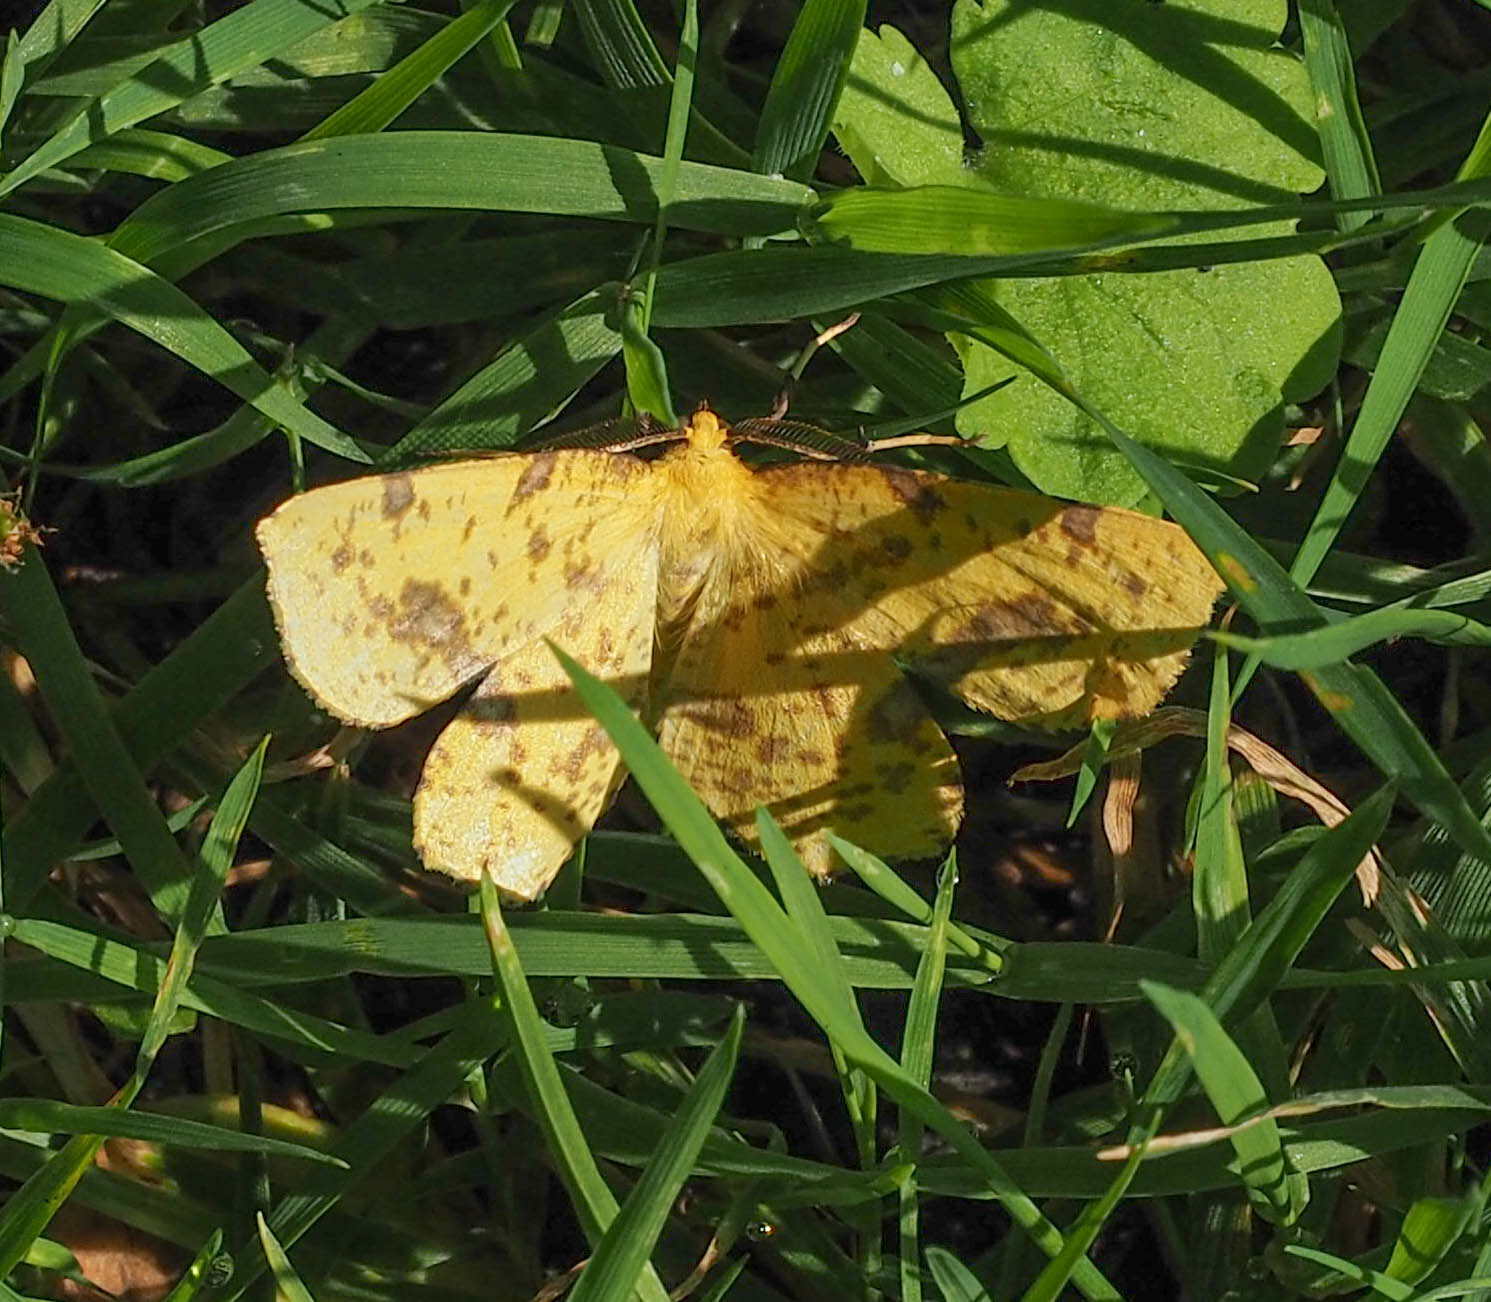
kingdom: Animalia
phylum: Arthropoda
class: Insecta
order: Lepidoptera
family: Geometridae
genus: Xanthotype
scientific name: Xanthotype
